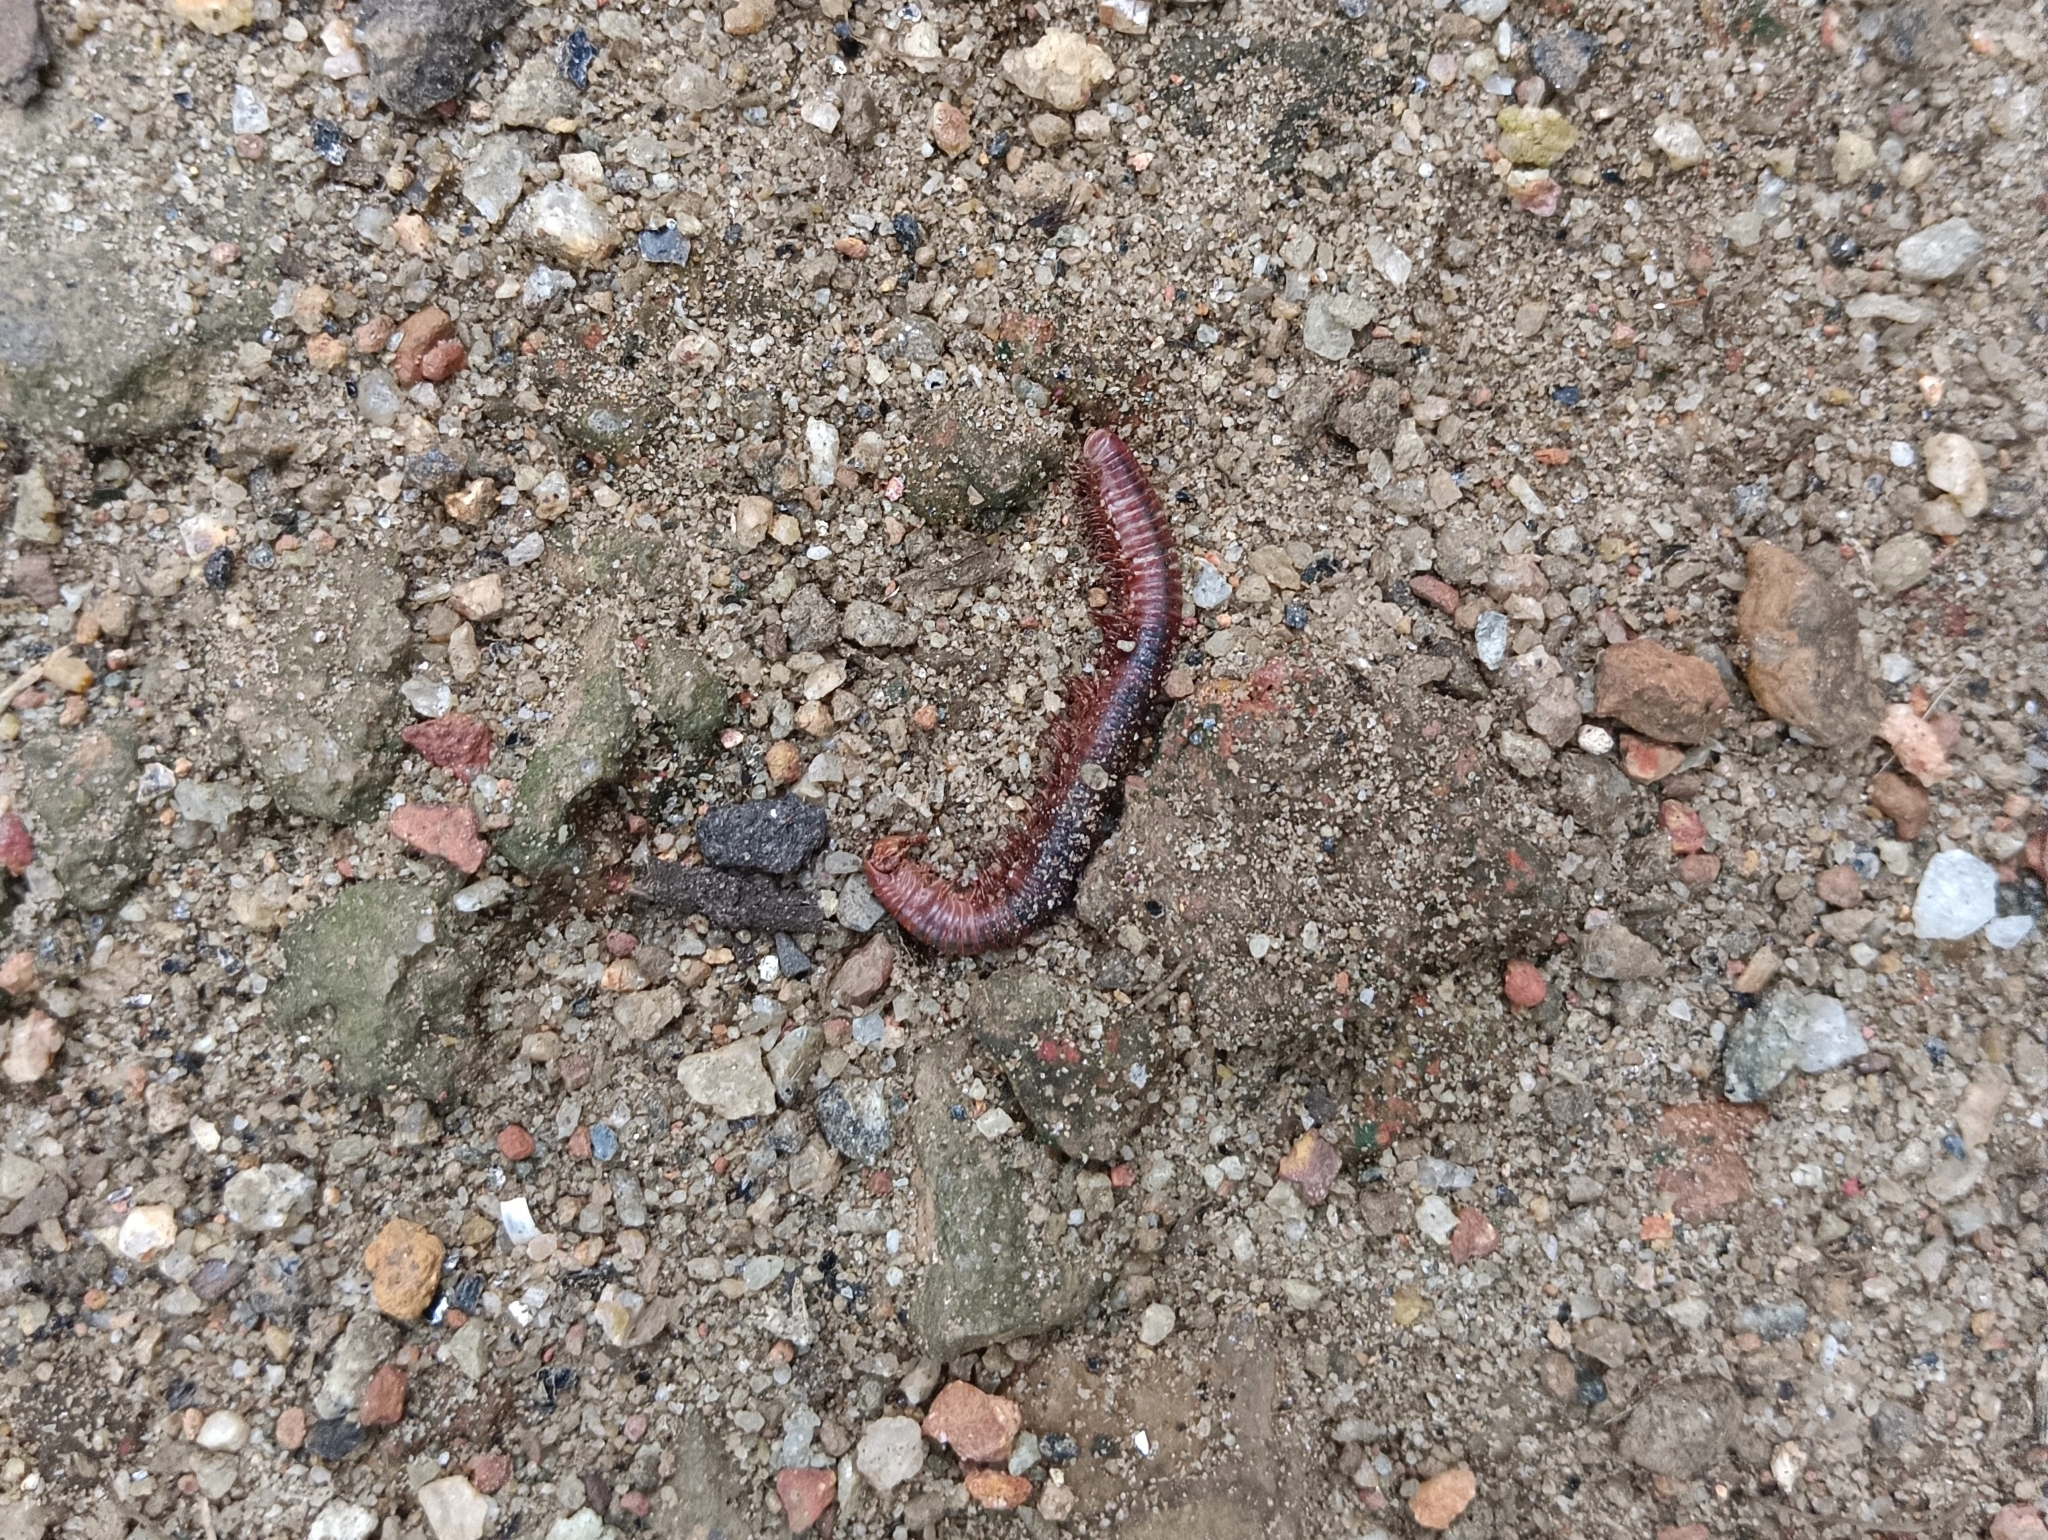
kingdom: Animalia
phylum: Arthropoda
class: Diplopoda
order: Spirobolida
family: Pachybolidae
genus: Trigoniulus
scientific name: Trigoniulus corallinus
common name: Millipede
